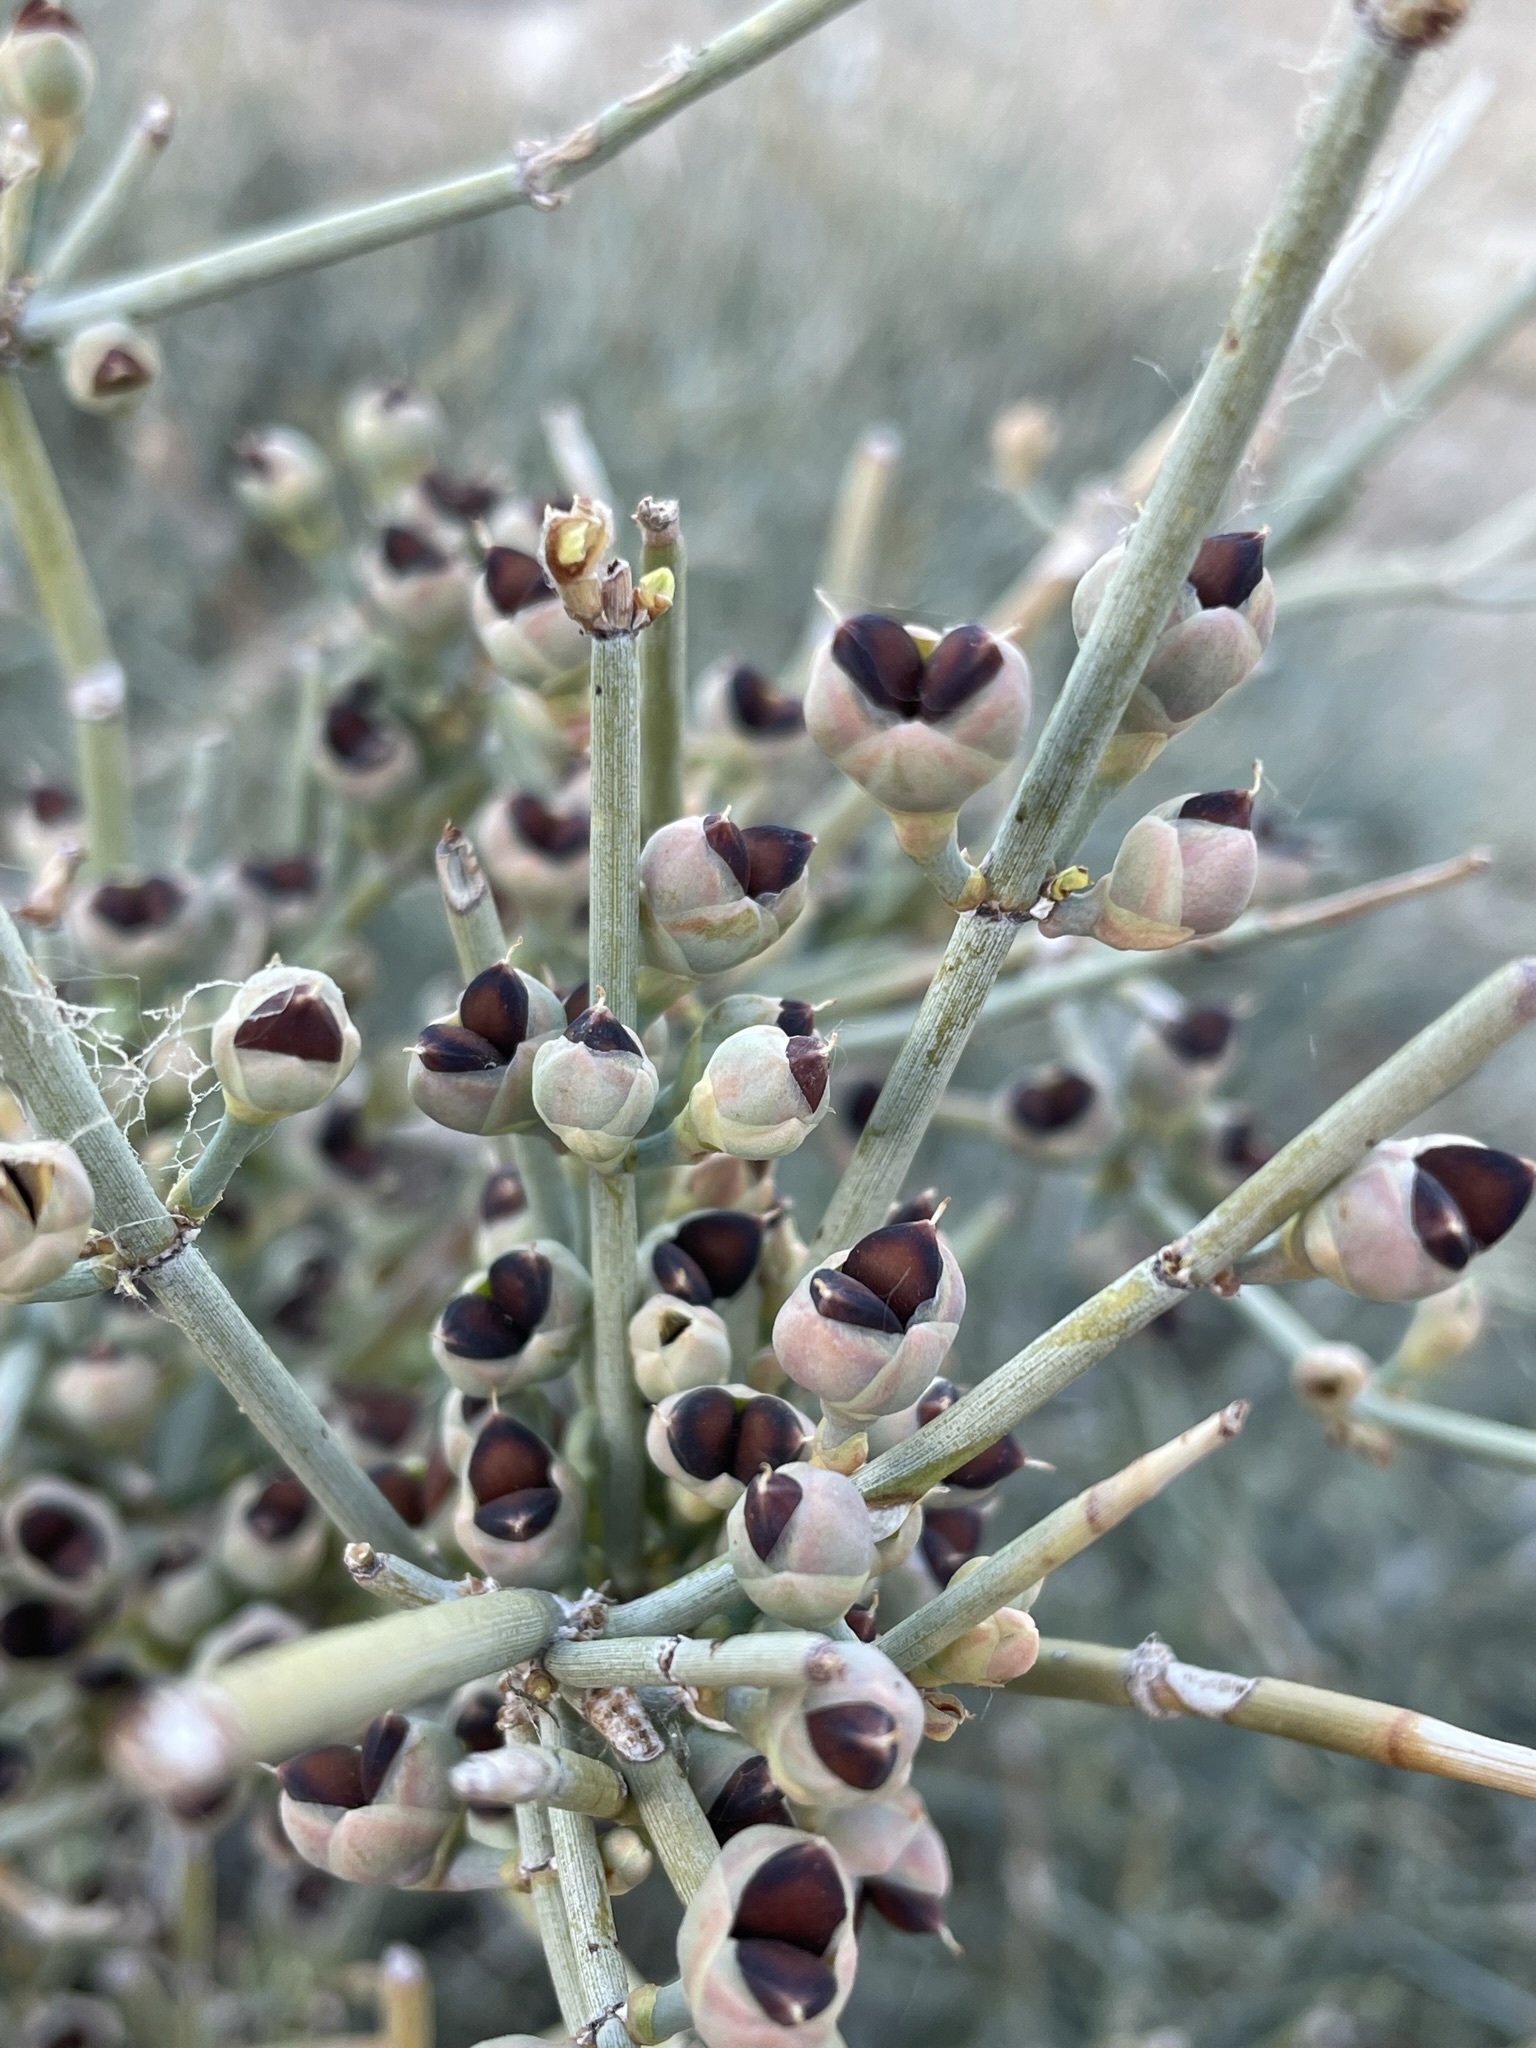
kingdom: Plantae
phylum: Tracheophyta
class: Gnetopsida
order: Ephedrales
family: Ephedraceae
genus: Ephedra
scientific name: Ephedra nevadensis
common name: Gray ephedra
